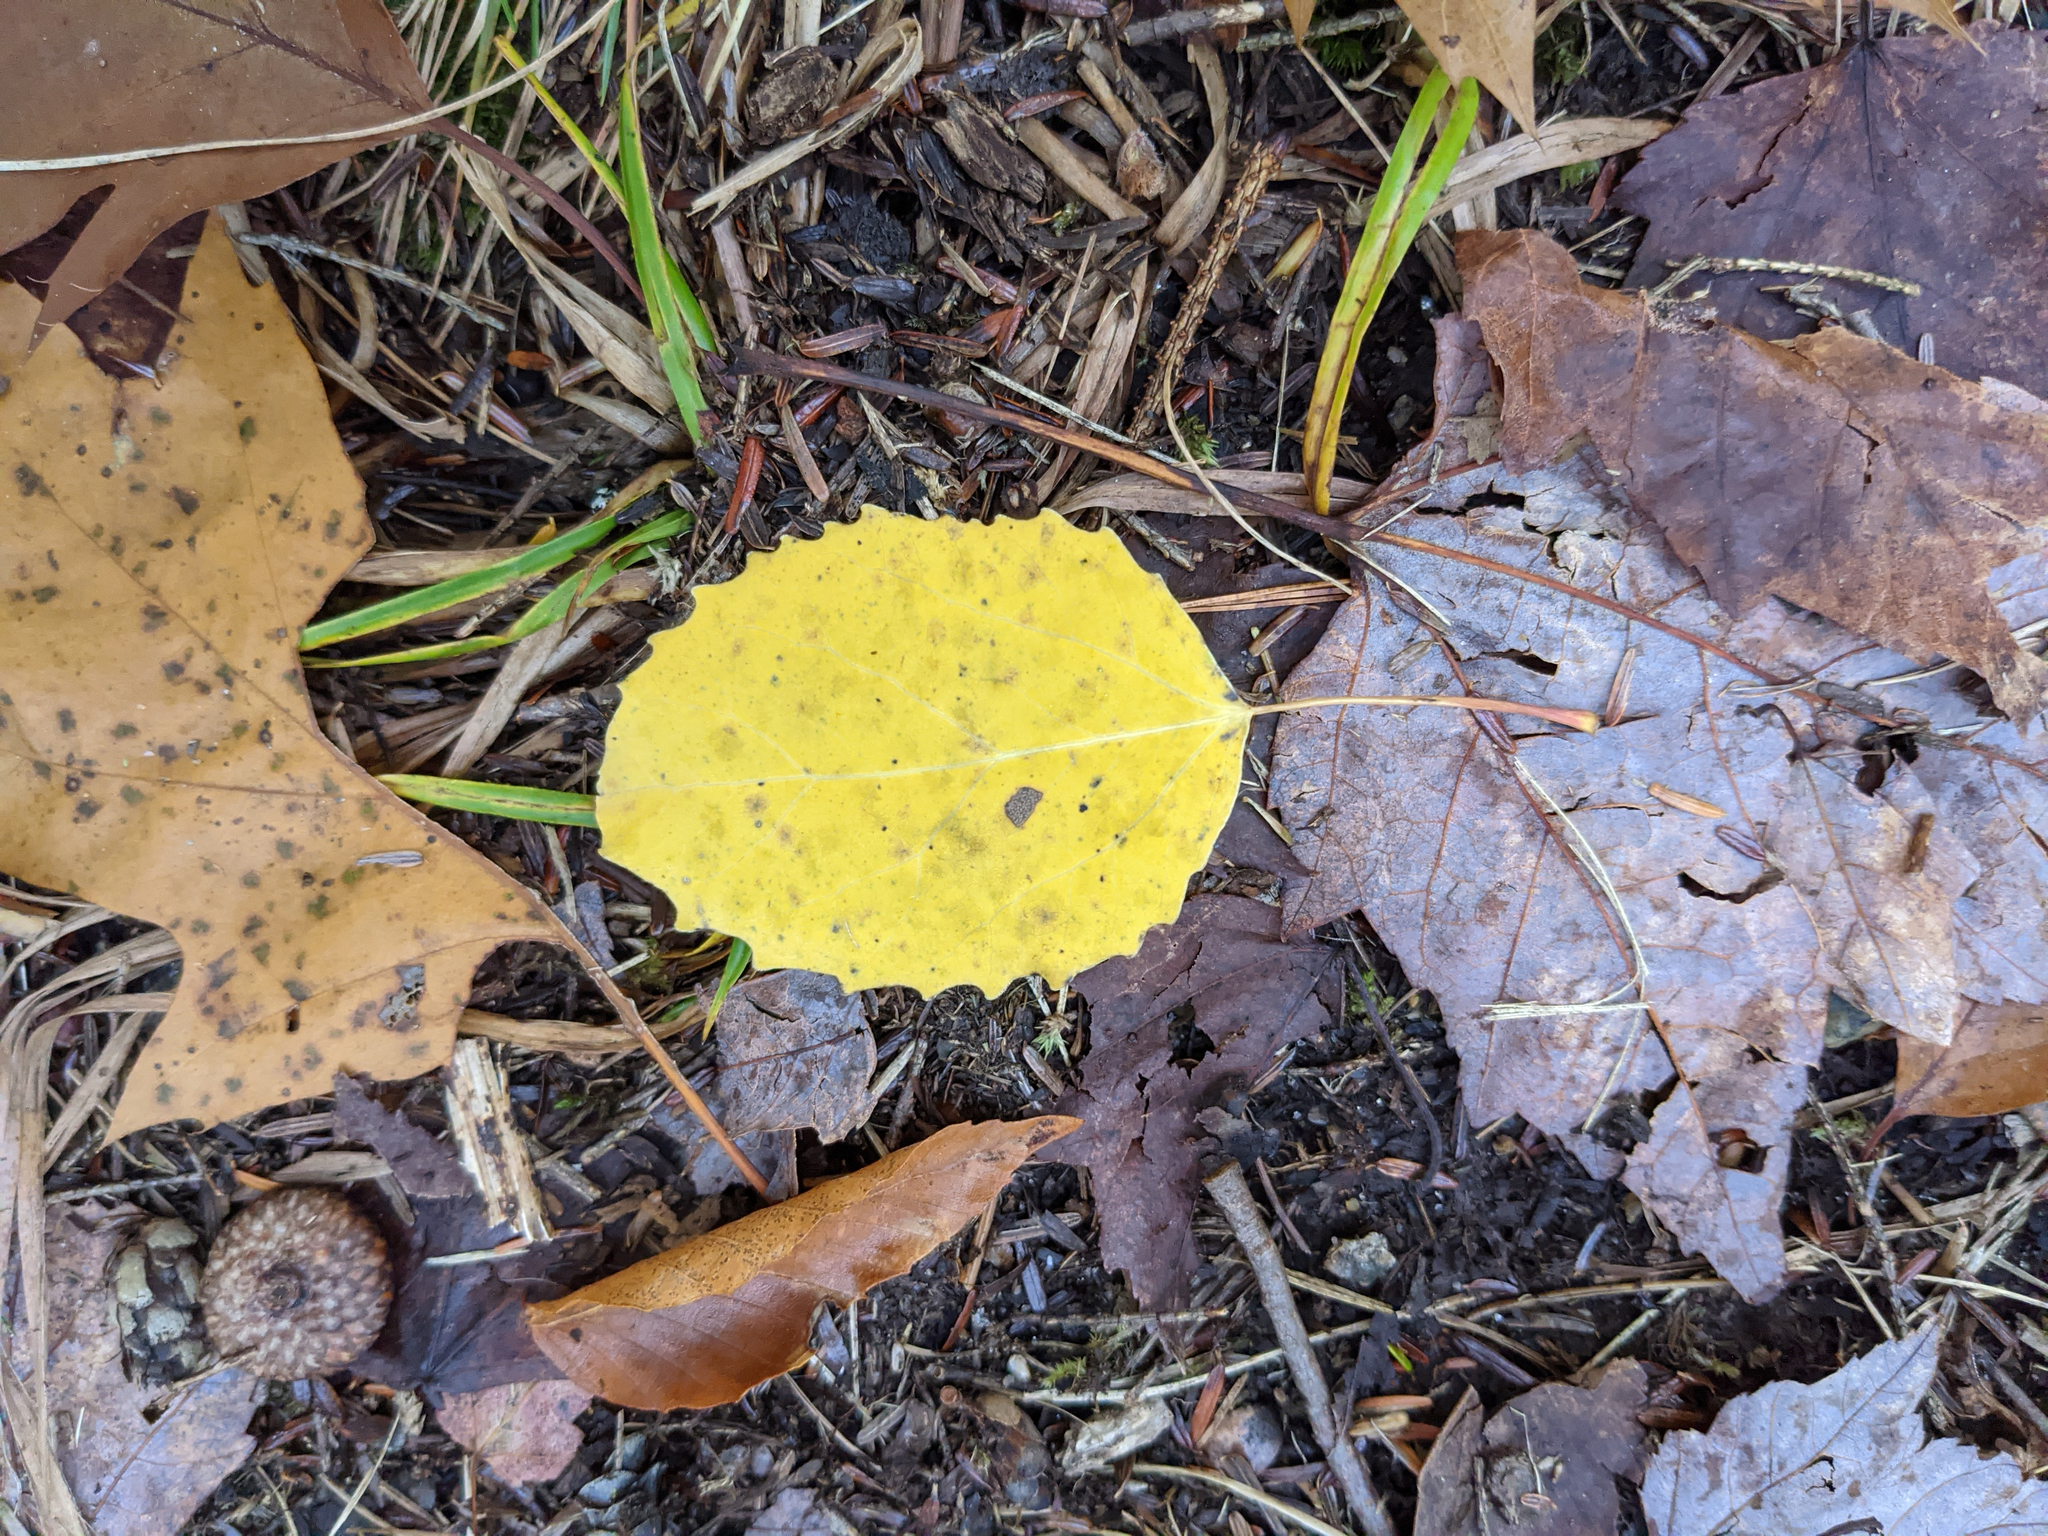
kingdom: Plantae
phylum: Tracheophyta
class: Magnoliopsida
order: Malpighiales
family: Salicaceae
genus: Populus
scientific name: Populus grandidentata
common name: Bigtooth aspen
